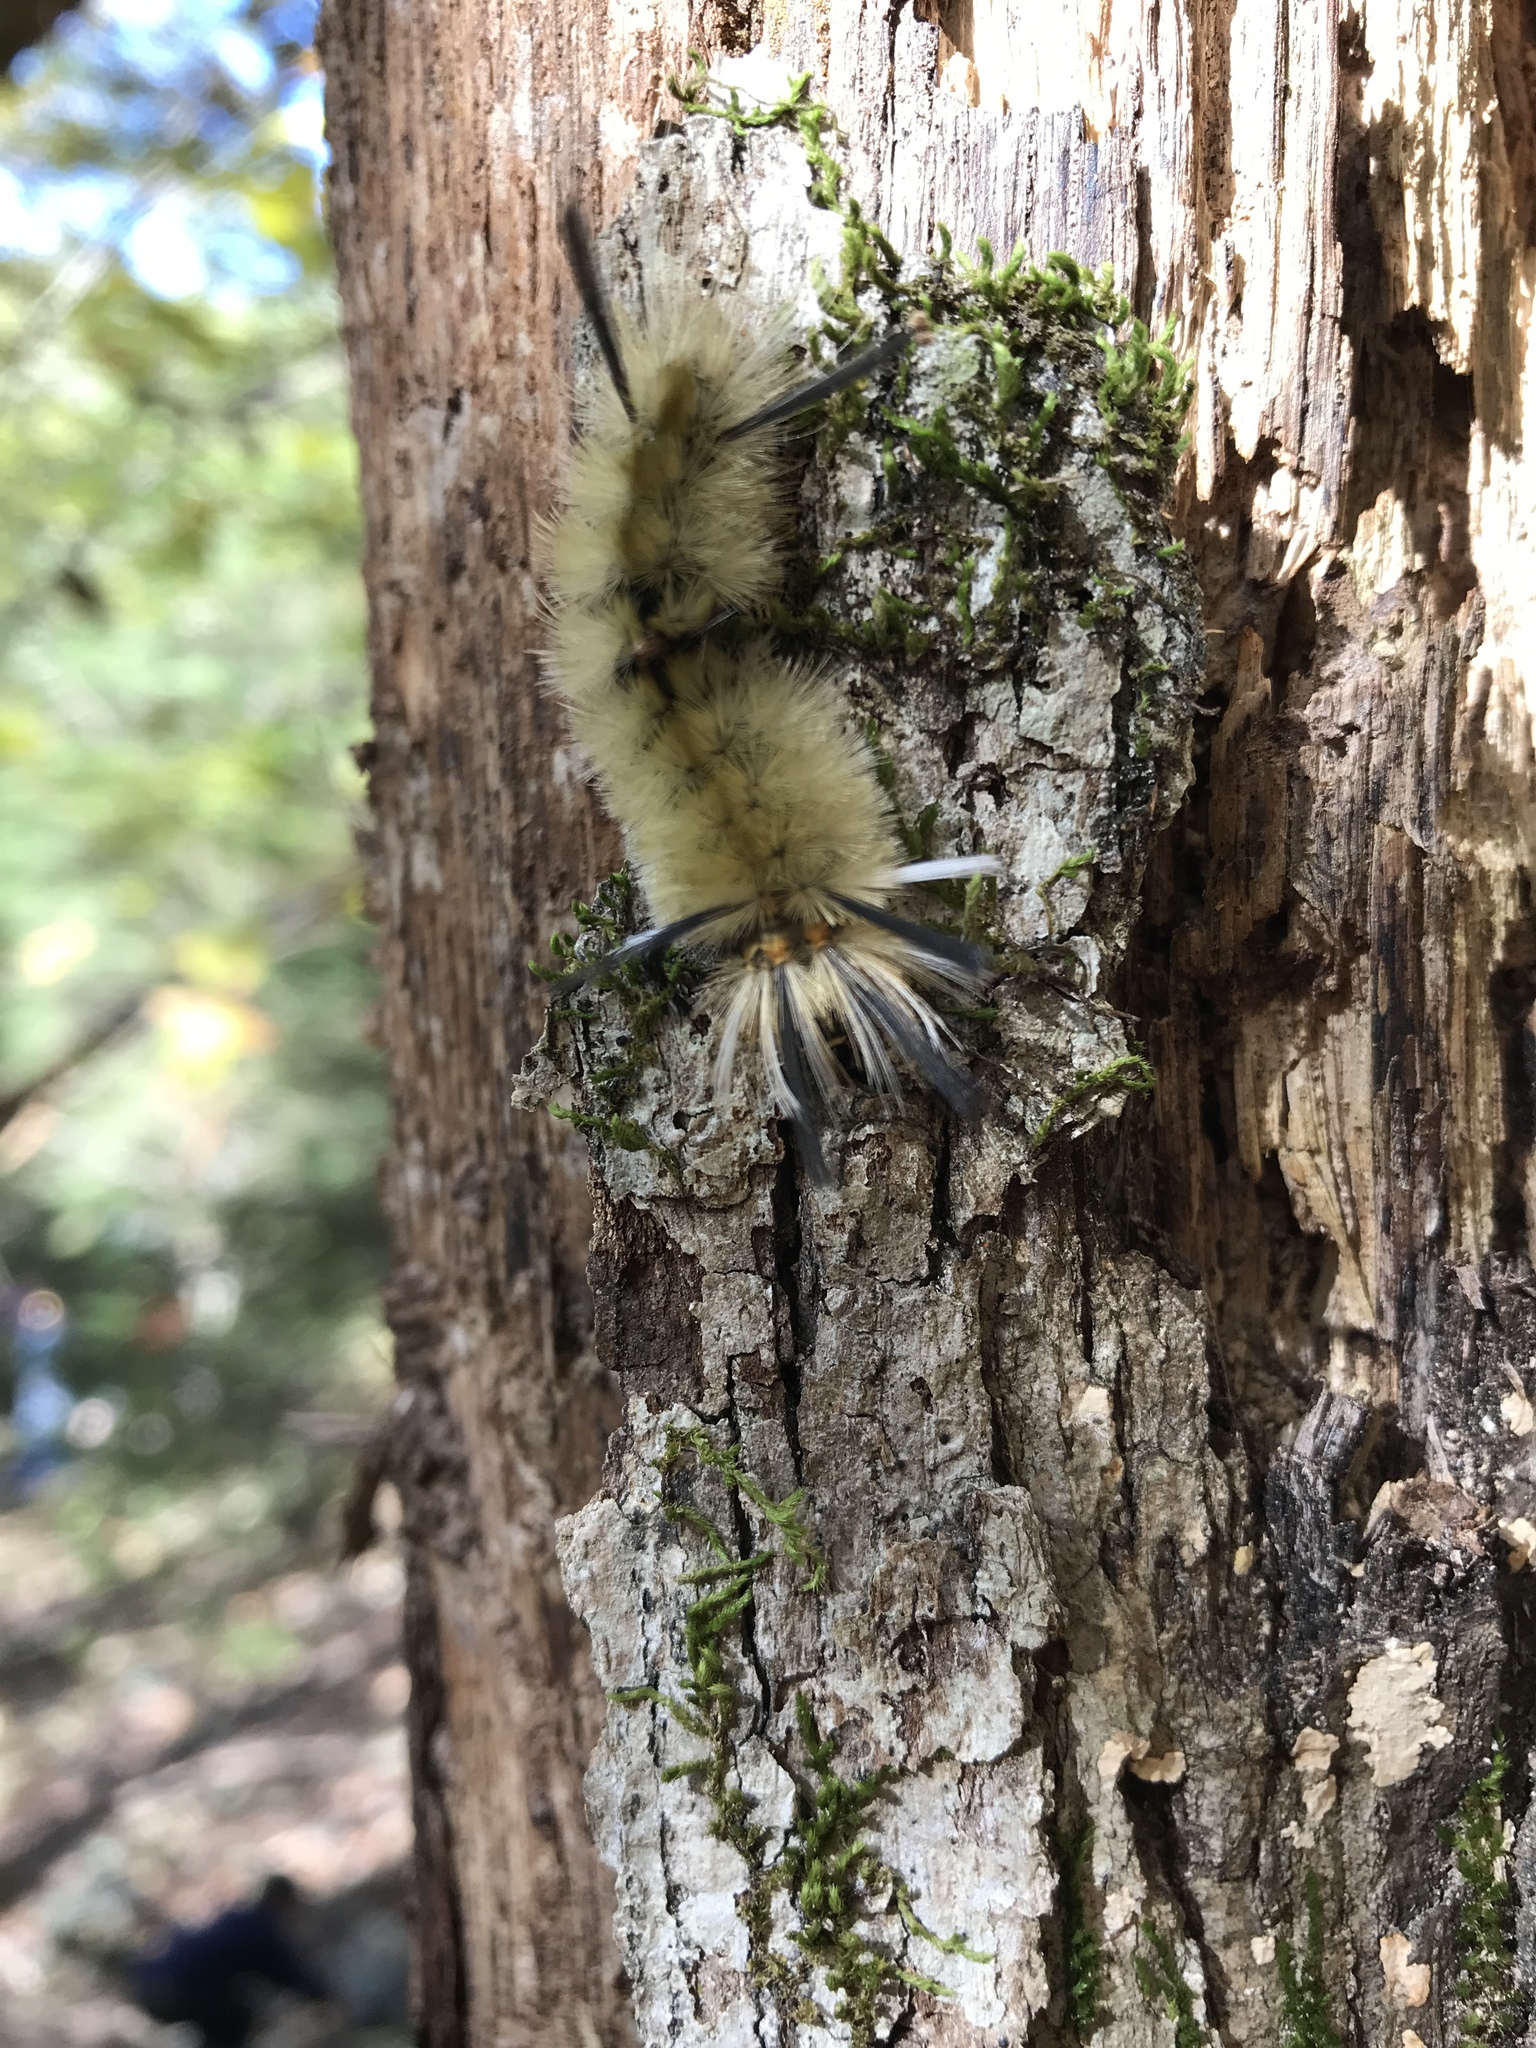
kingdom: Animalia
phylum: Arthropoda
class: Insecta
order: Lepidoptera
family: Erebidae
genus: Halysidota
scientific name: Halysidota tessellaris
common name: Banded tussock moth
